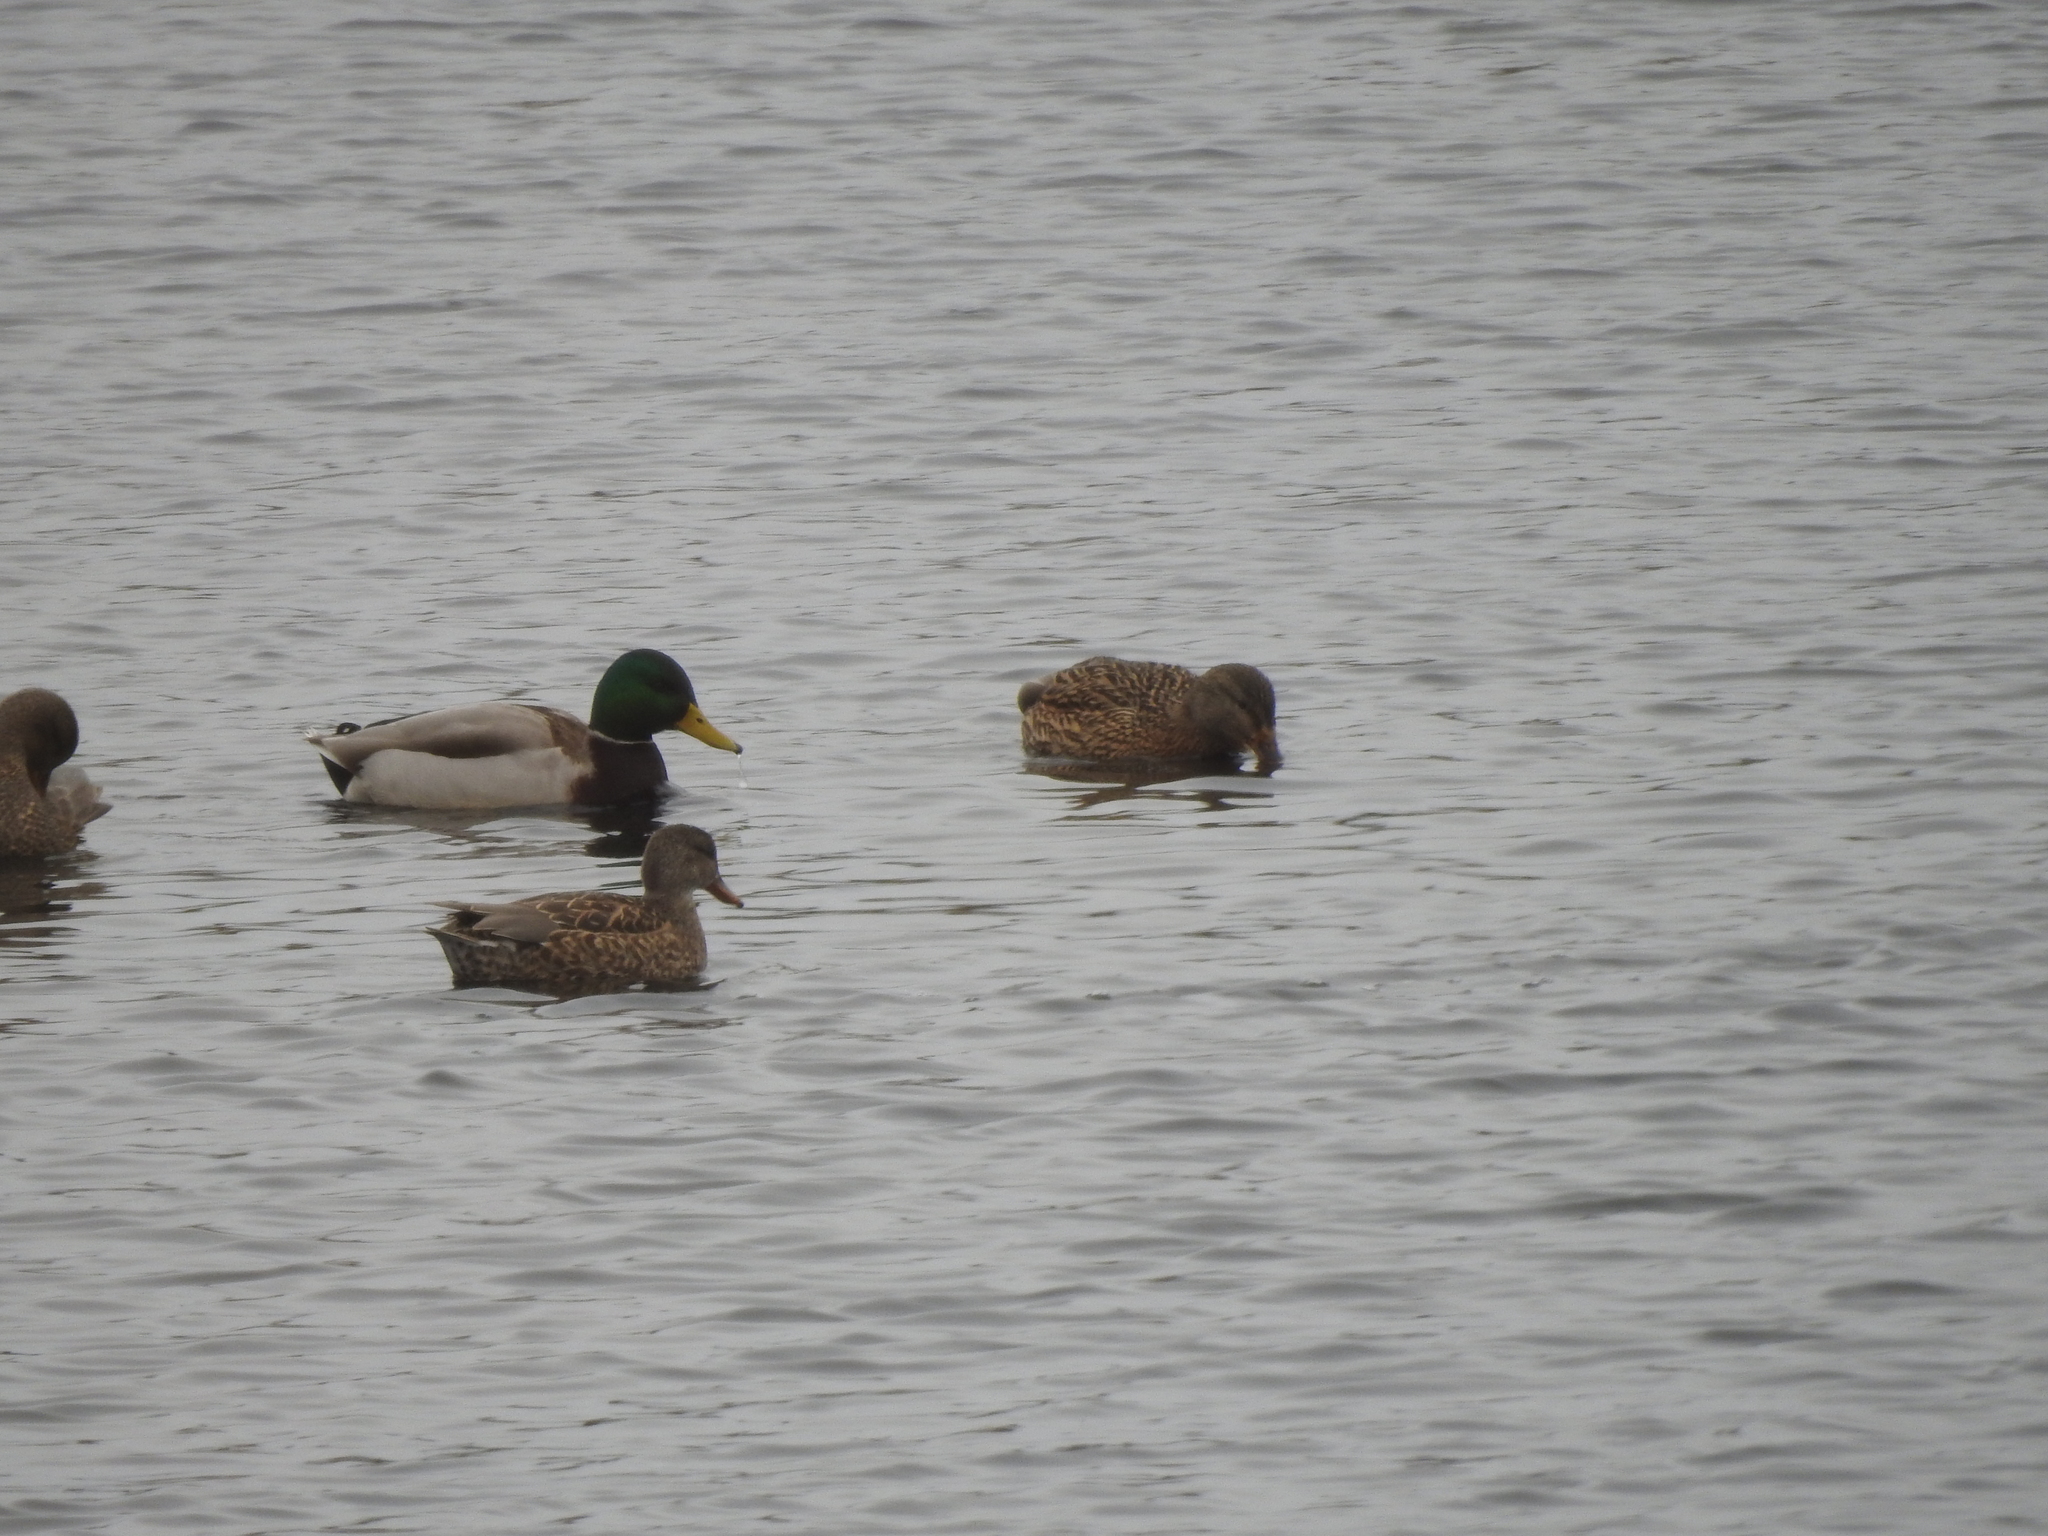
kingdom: Animalia
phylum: Chordata
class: Aves
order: Anseriformes
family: Anatidae
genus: Anas
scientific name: Anas platyrhynchos
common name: Mallard
